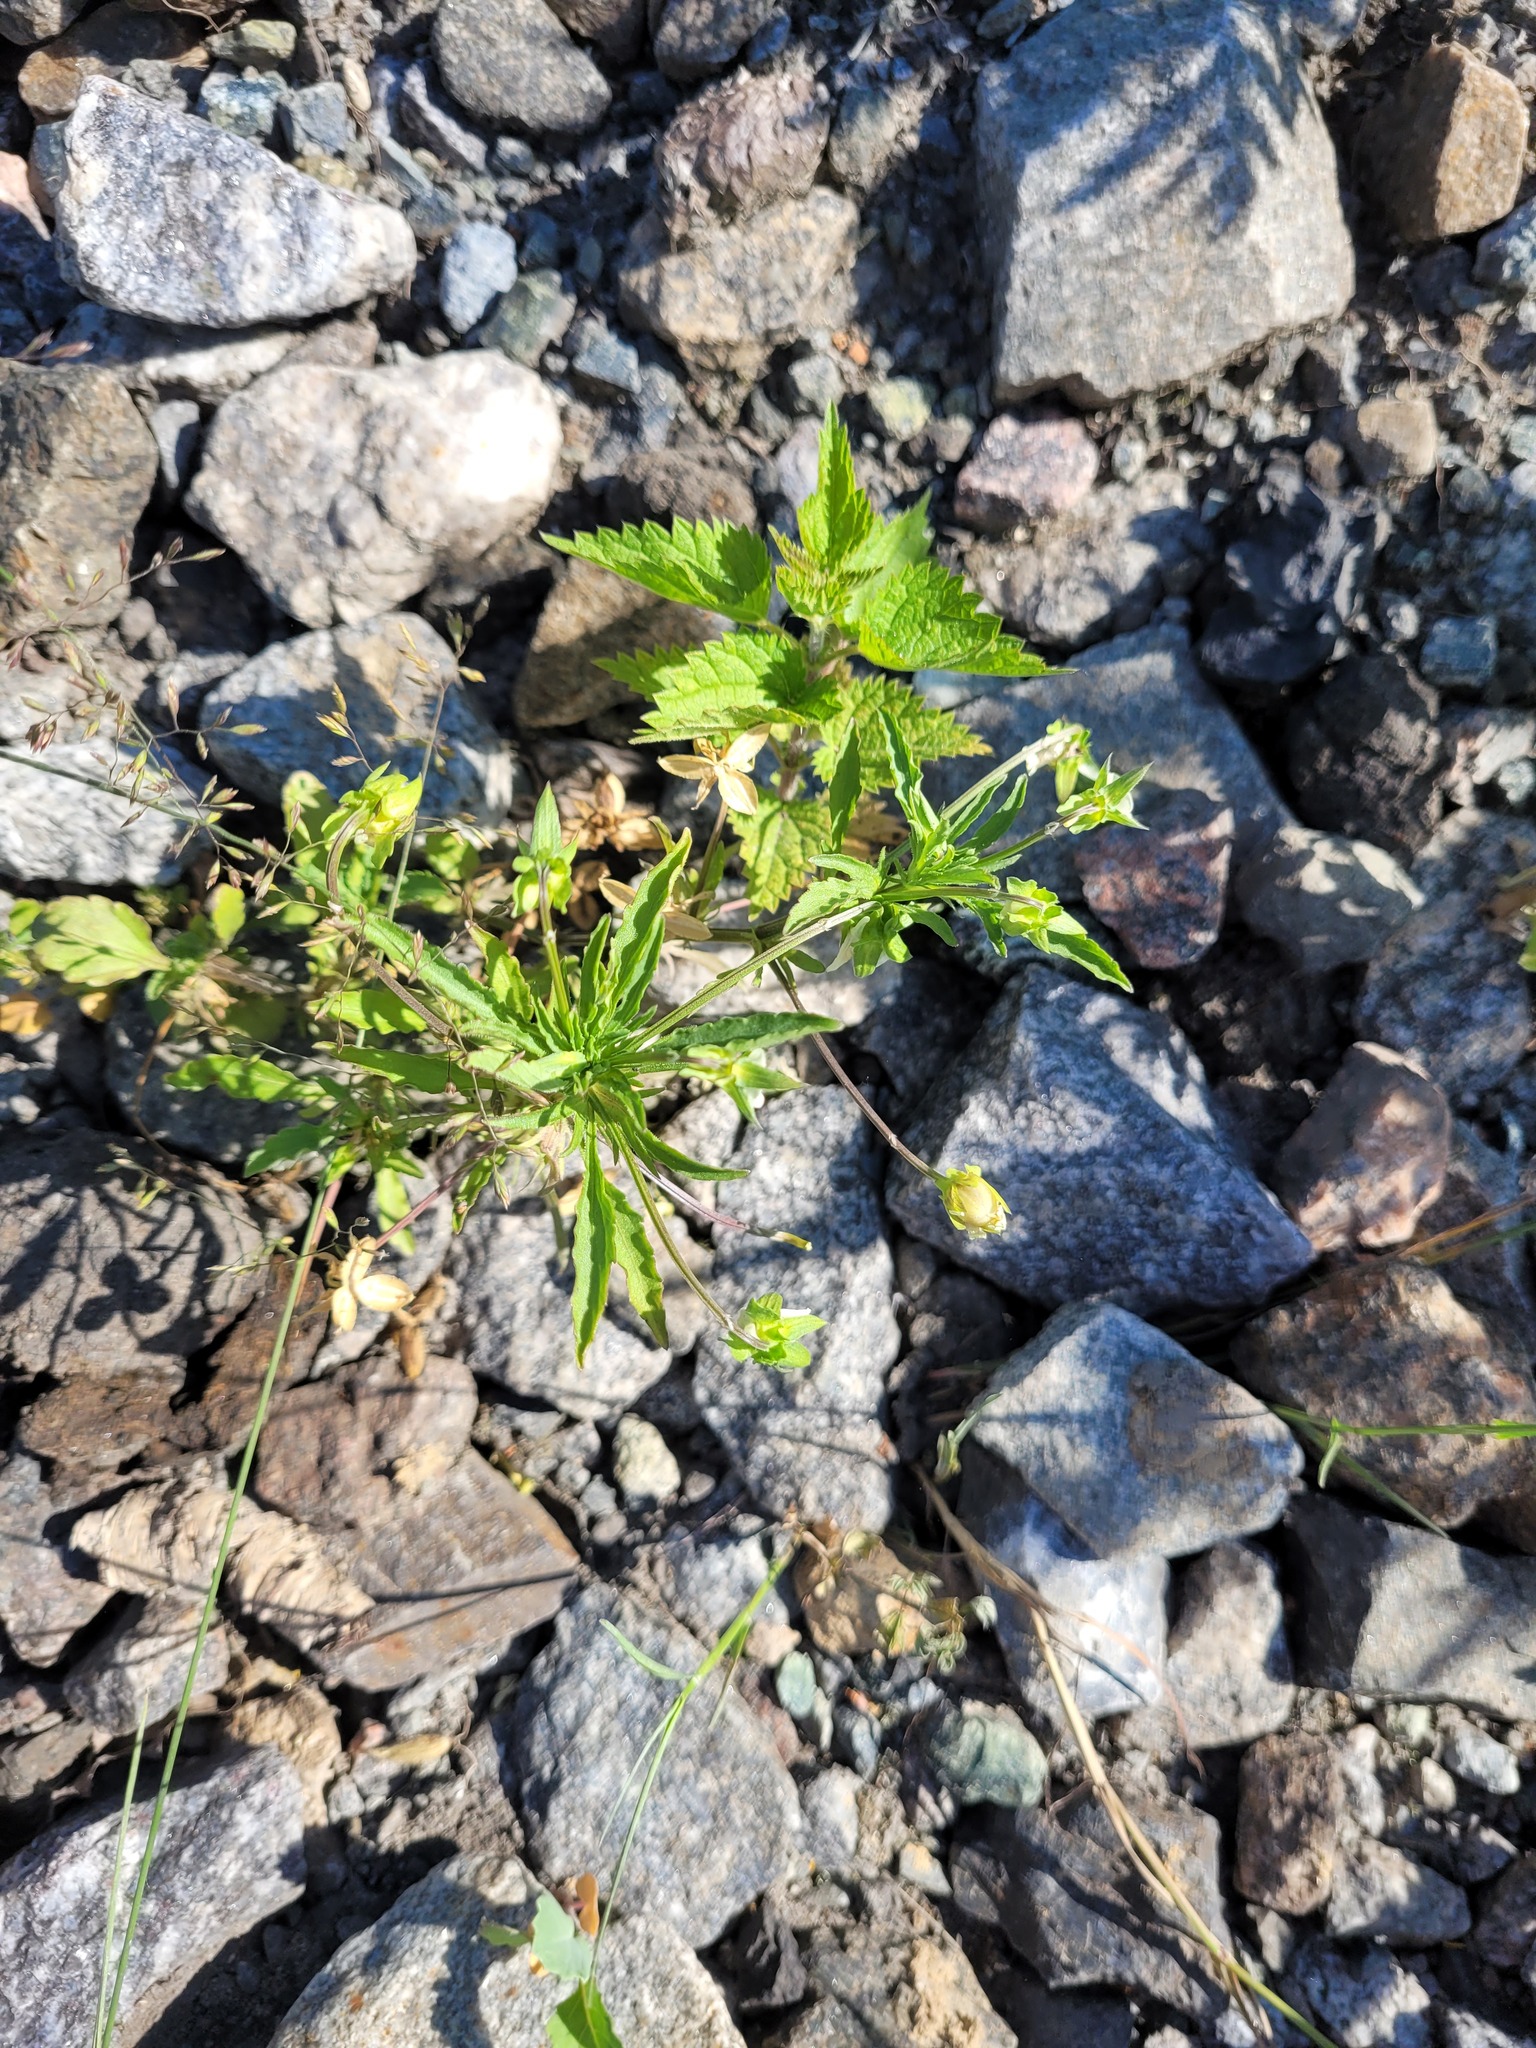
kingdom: Plantae
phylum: Tracheophyta
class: Magnoliopsida
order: Malpighiales
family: Violaceae
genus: Viola
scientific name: Viola arvensis
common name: Field pansy
